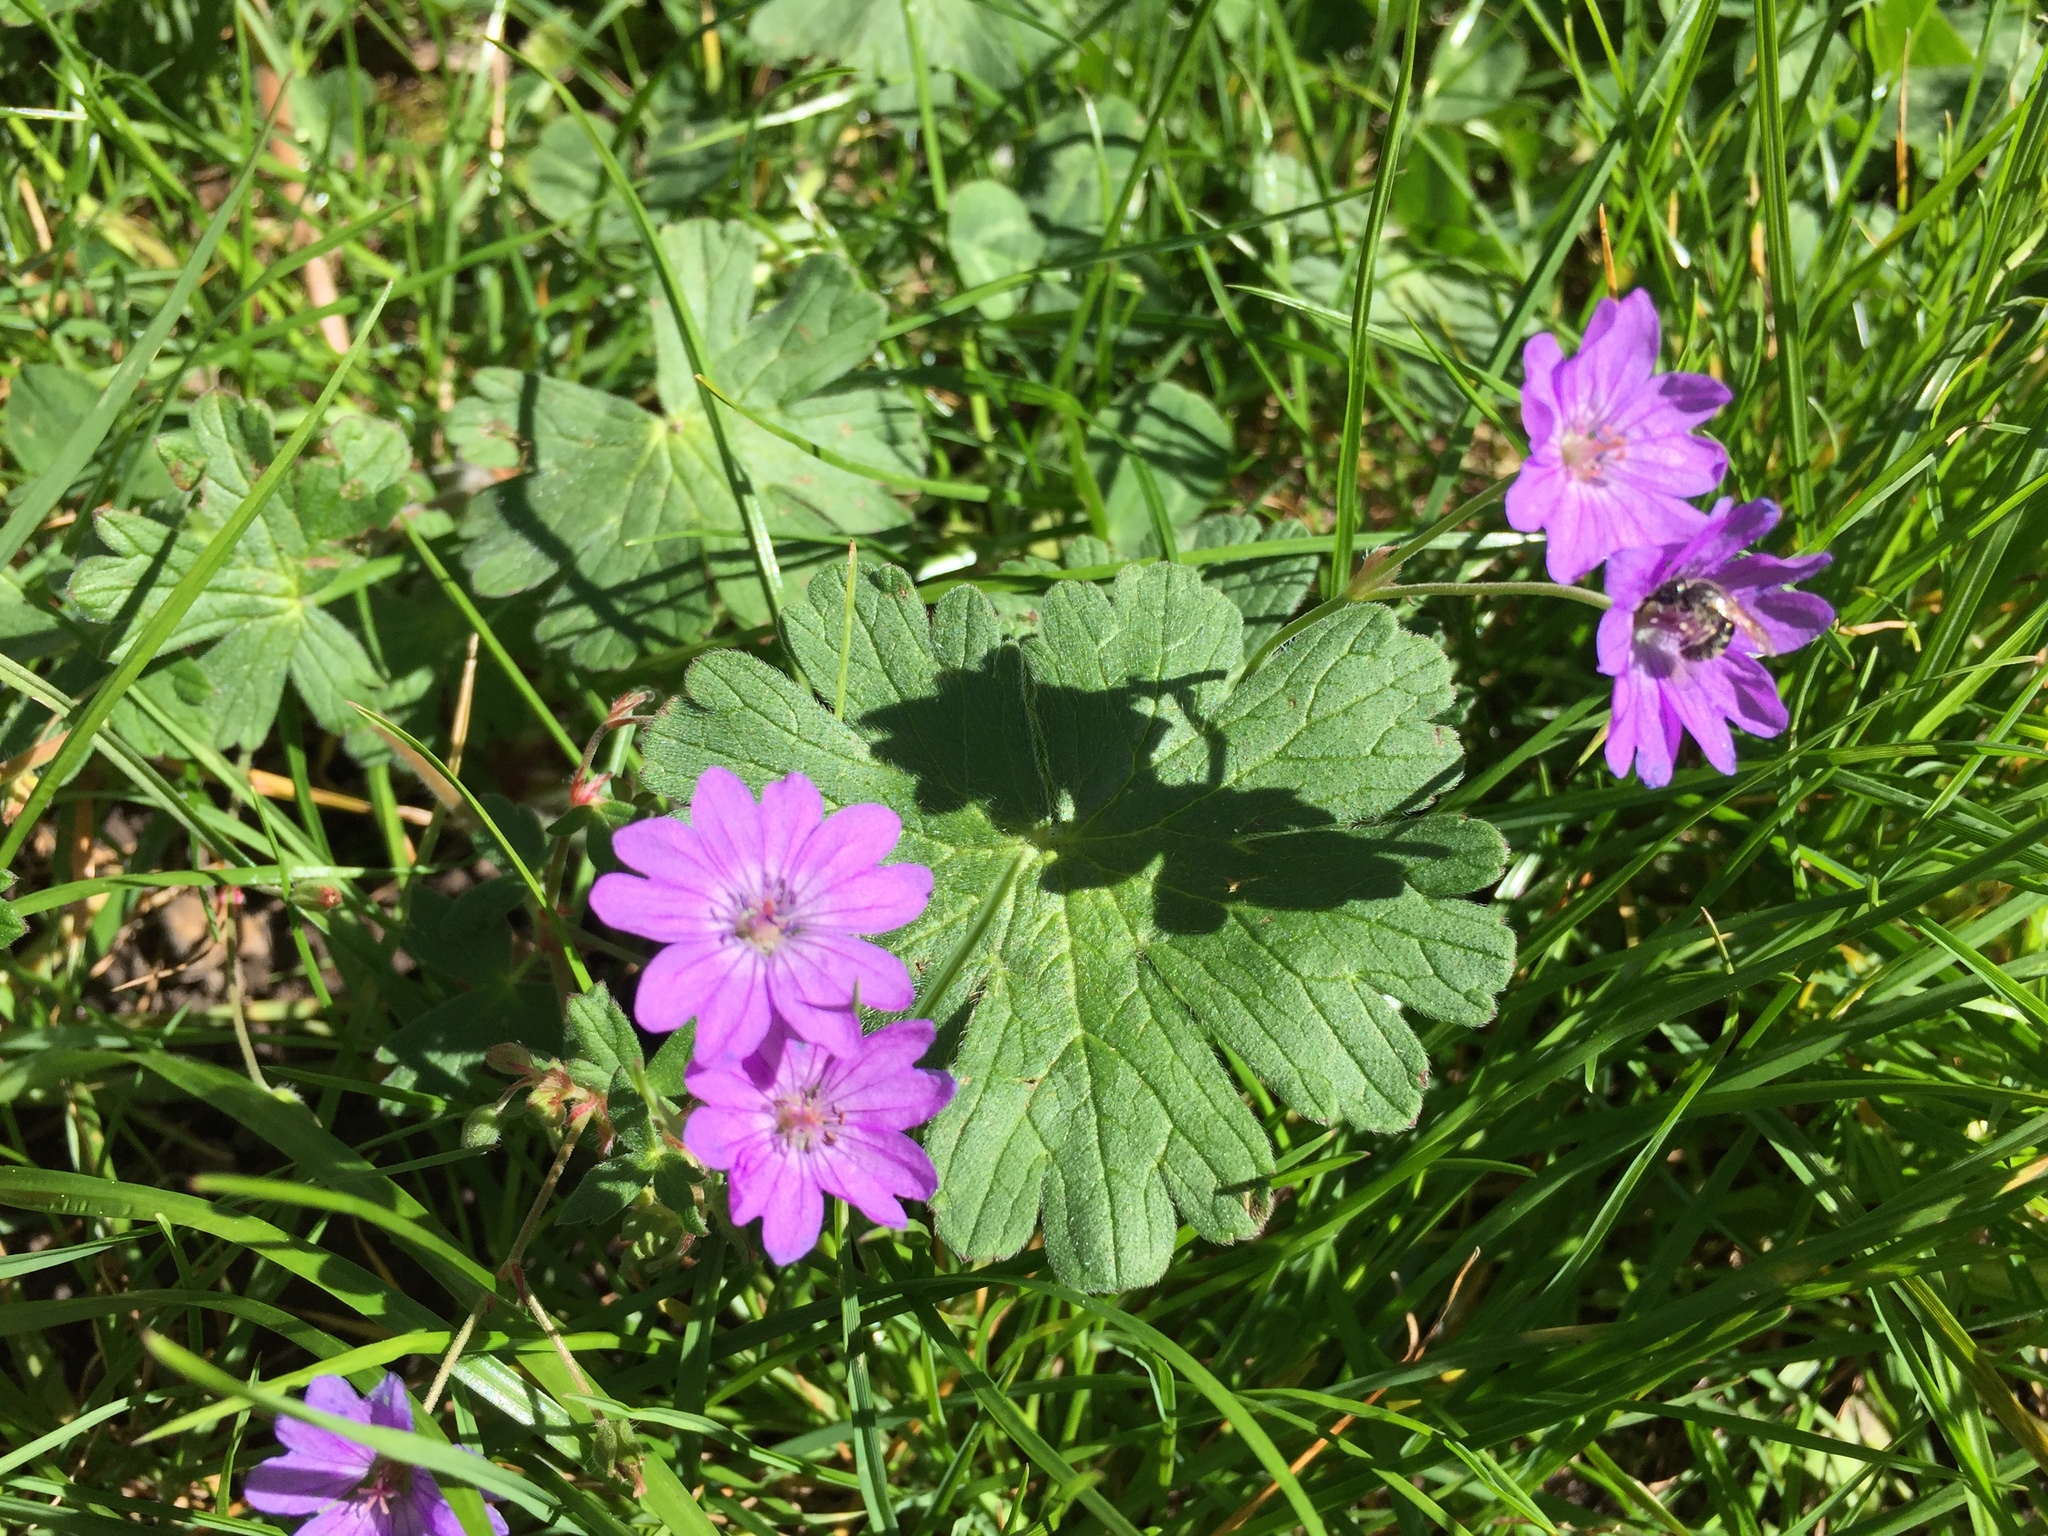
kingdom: Plantae
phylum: Tracheophyta
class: Magnoliopsida
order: Geraniales
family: Geraniaceae
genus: Geranium
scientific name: Geranium pyrenaicum
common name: Hedgerow crane's-bill
